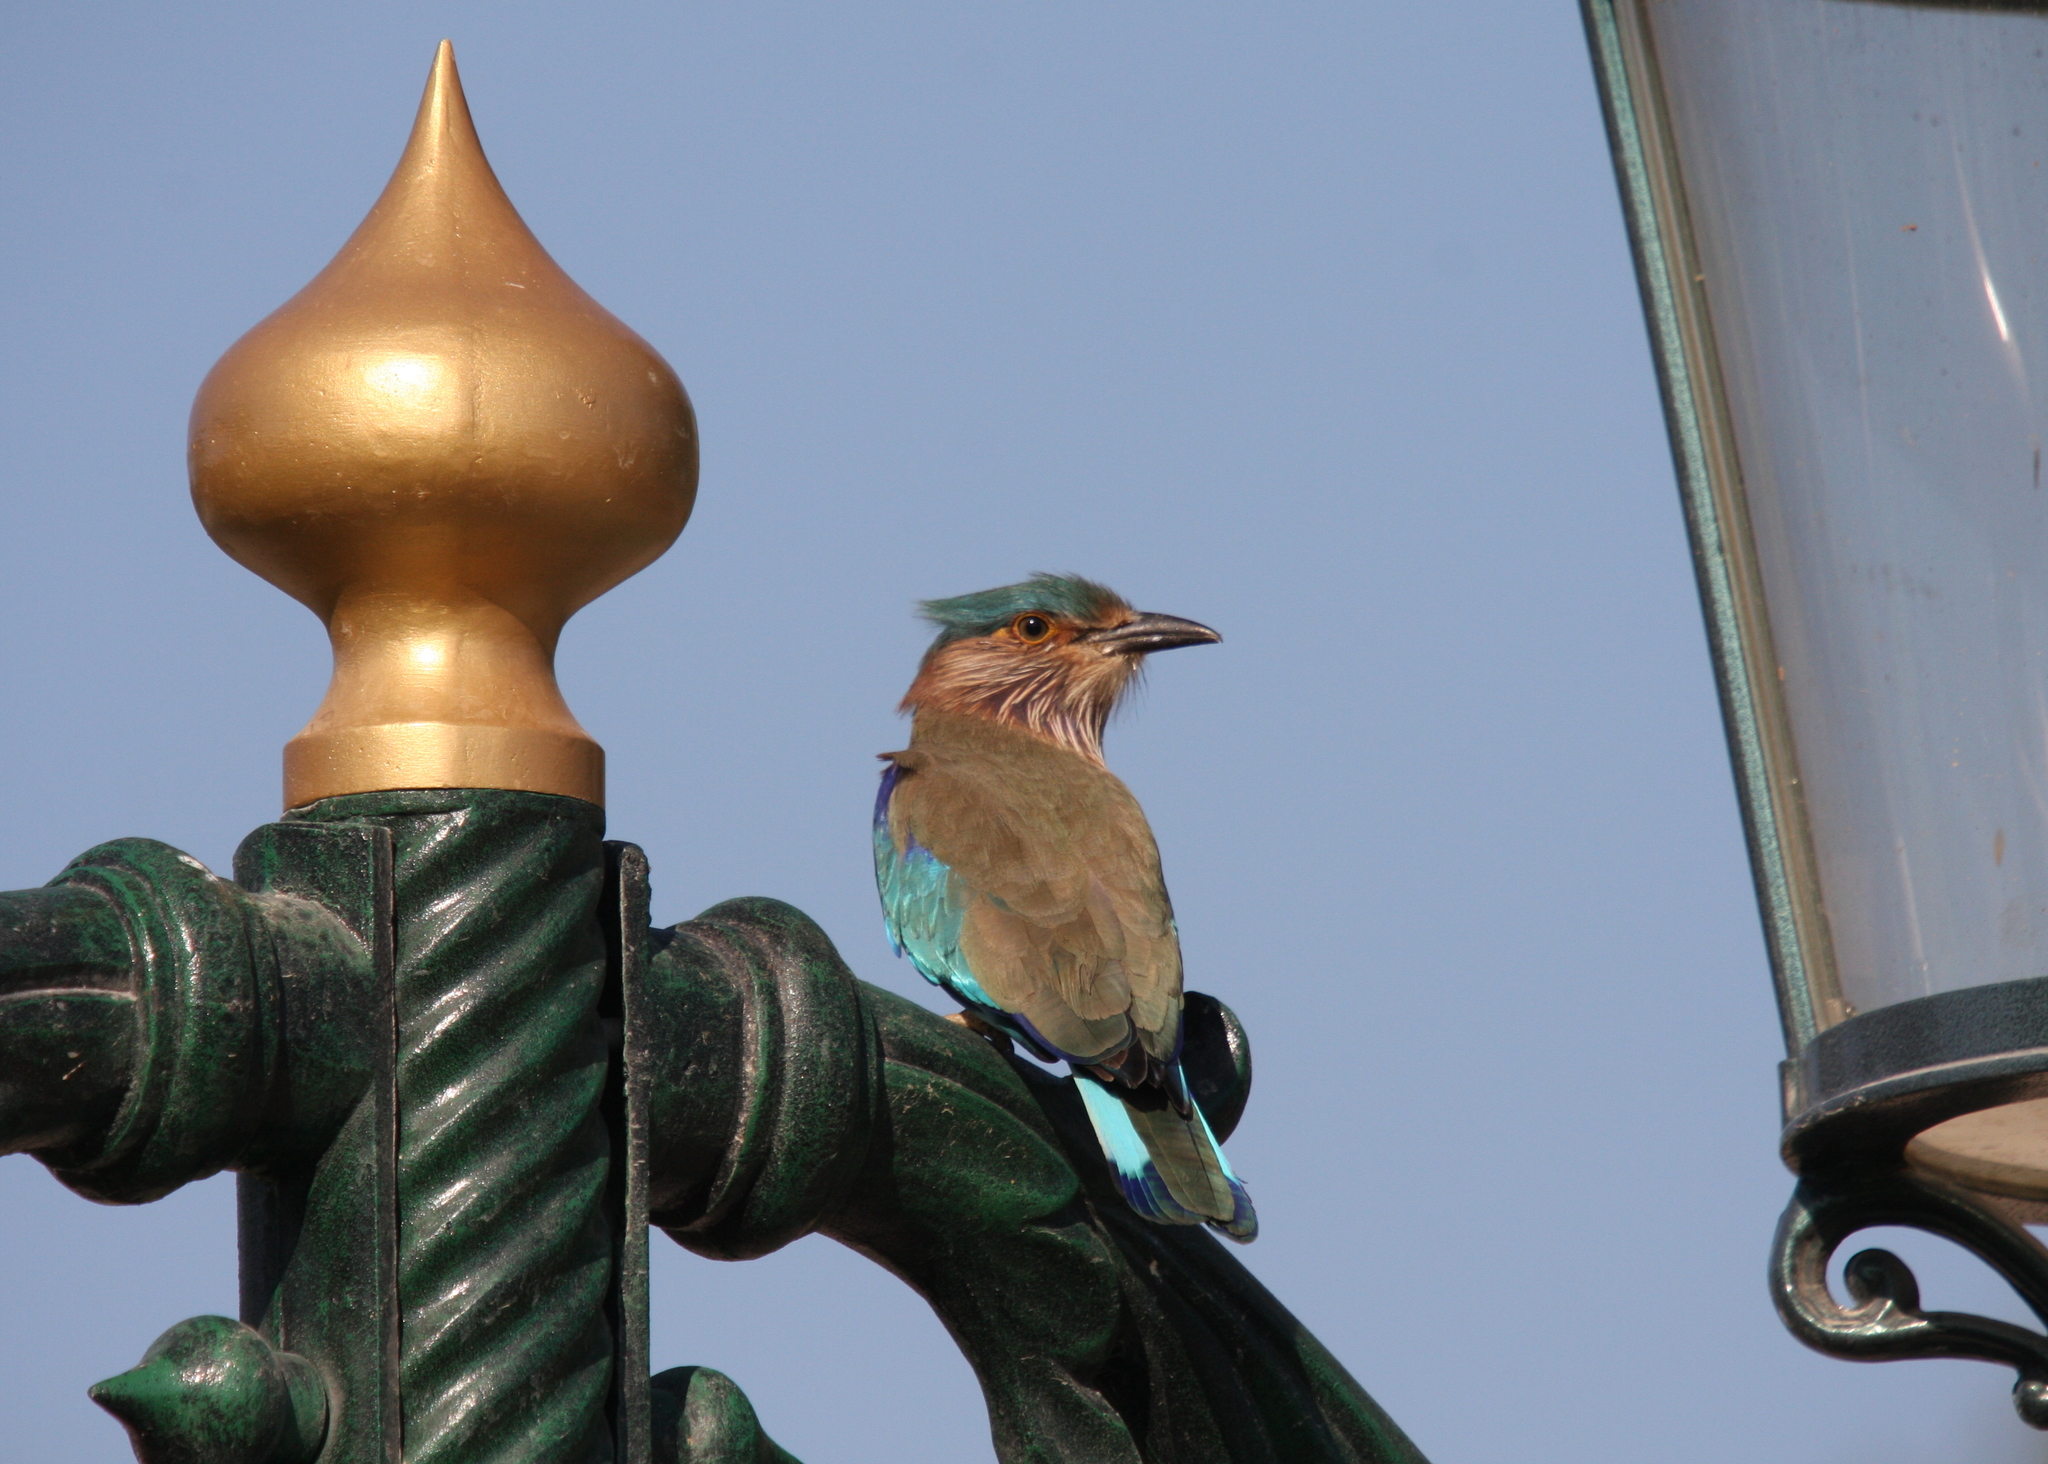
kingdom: Animalia
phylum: Chordata
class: Aves
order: Coraciiformes
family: Coraciidae
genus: Coracias
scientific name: Coracias benghalensis
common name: Indian roller
